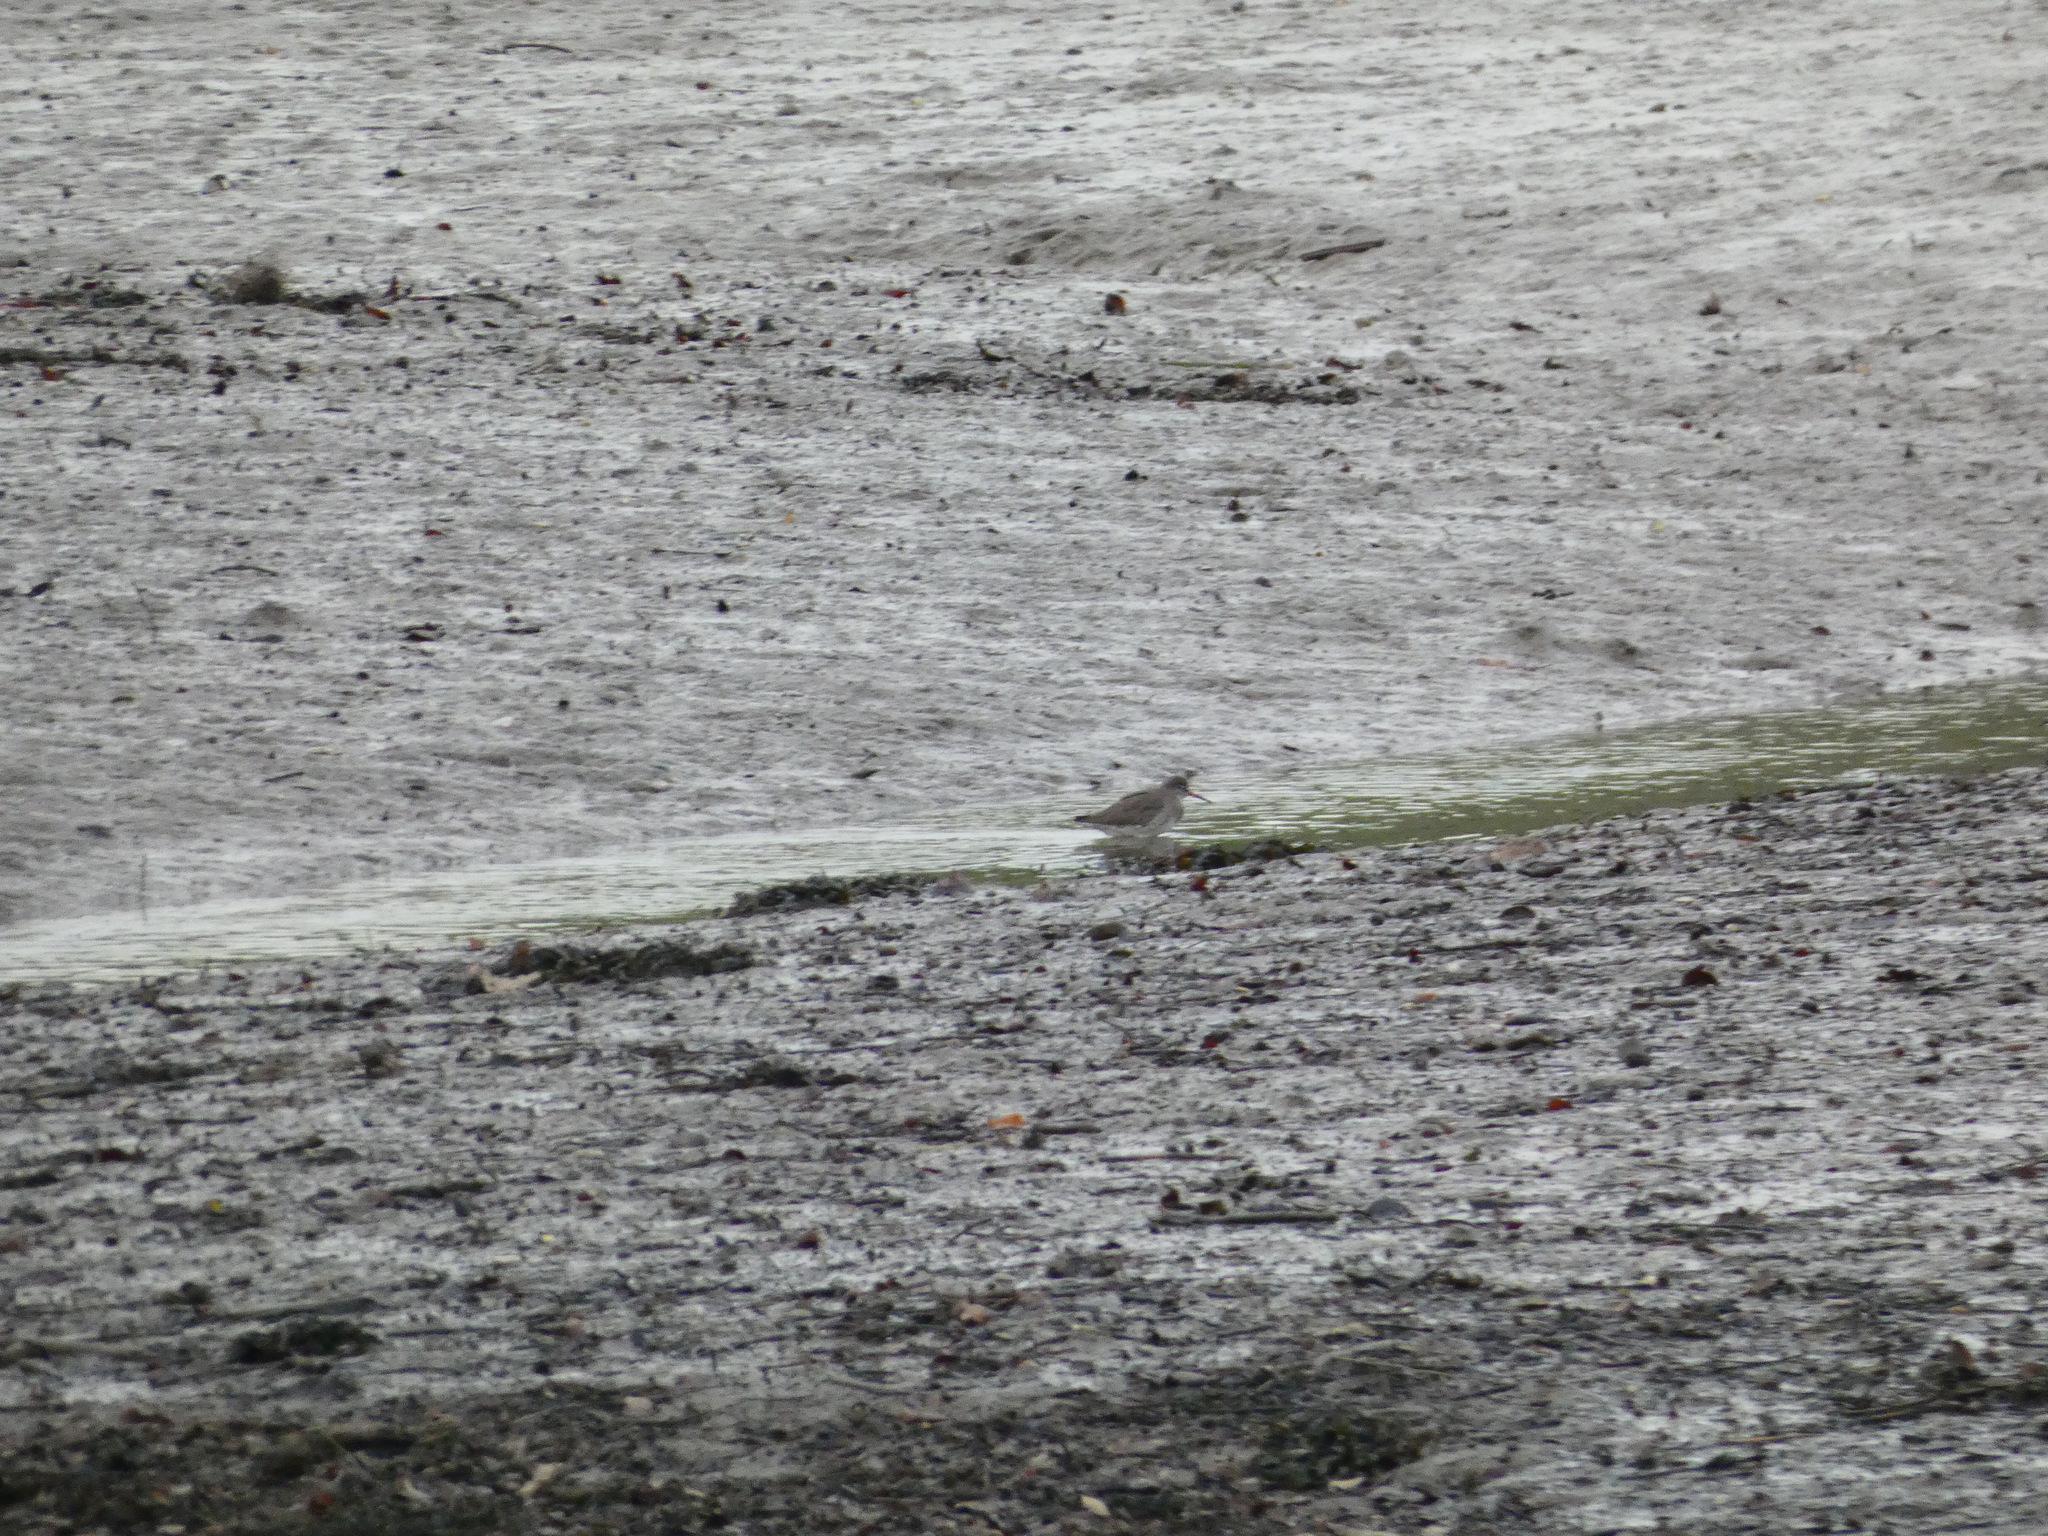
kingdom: Animalia
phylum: Chordata
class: Aves
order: Charadriiformes
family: Scolopacidae
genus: Tringa
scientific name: Tringa totanus
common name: Common redshank
